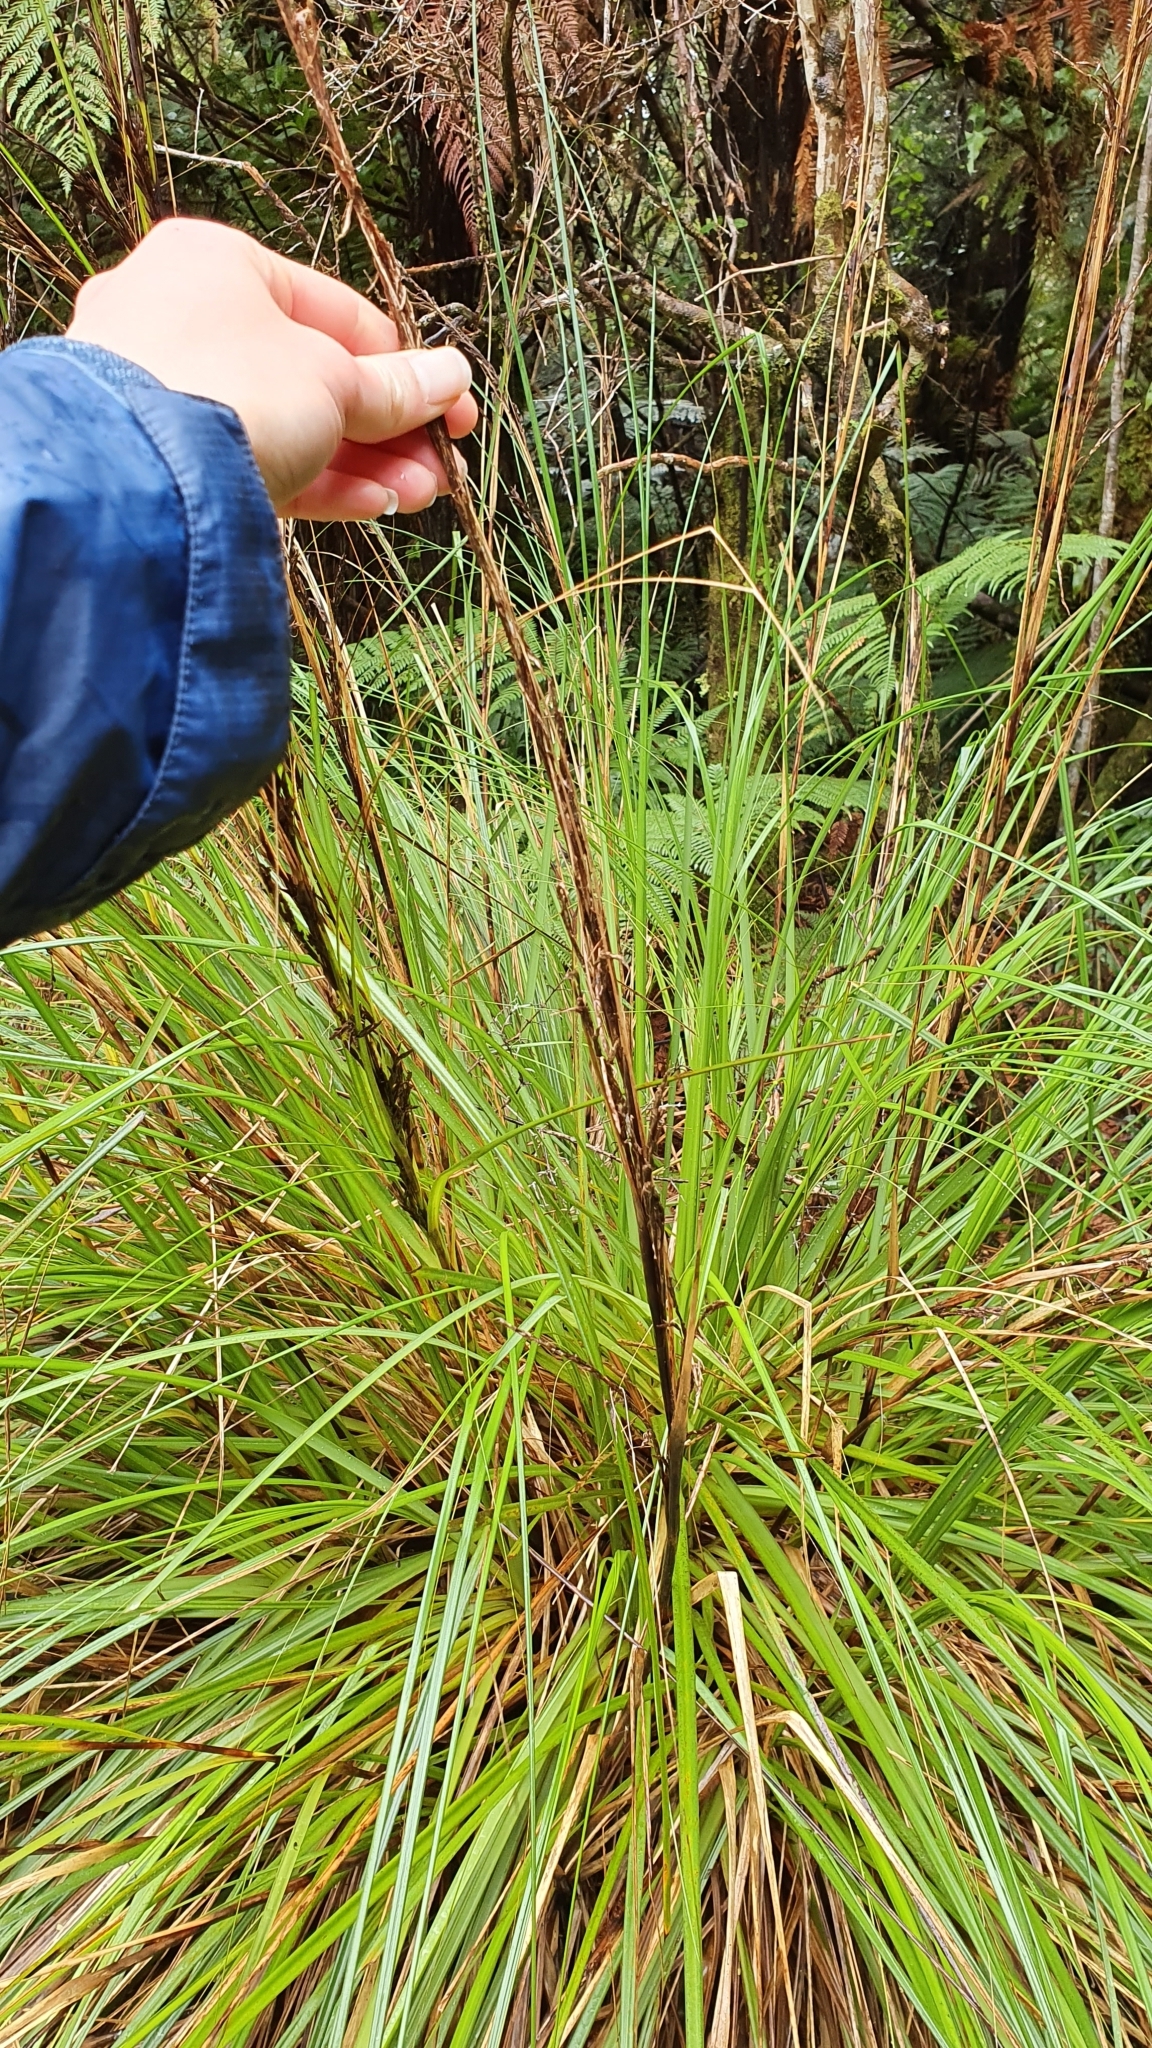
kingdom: Plantae
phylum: Tracheophyta
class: Liliopsida
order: Poales
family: Cyperaceae
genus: Gahnia
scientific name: Gahnia rigida
